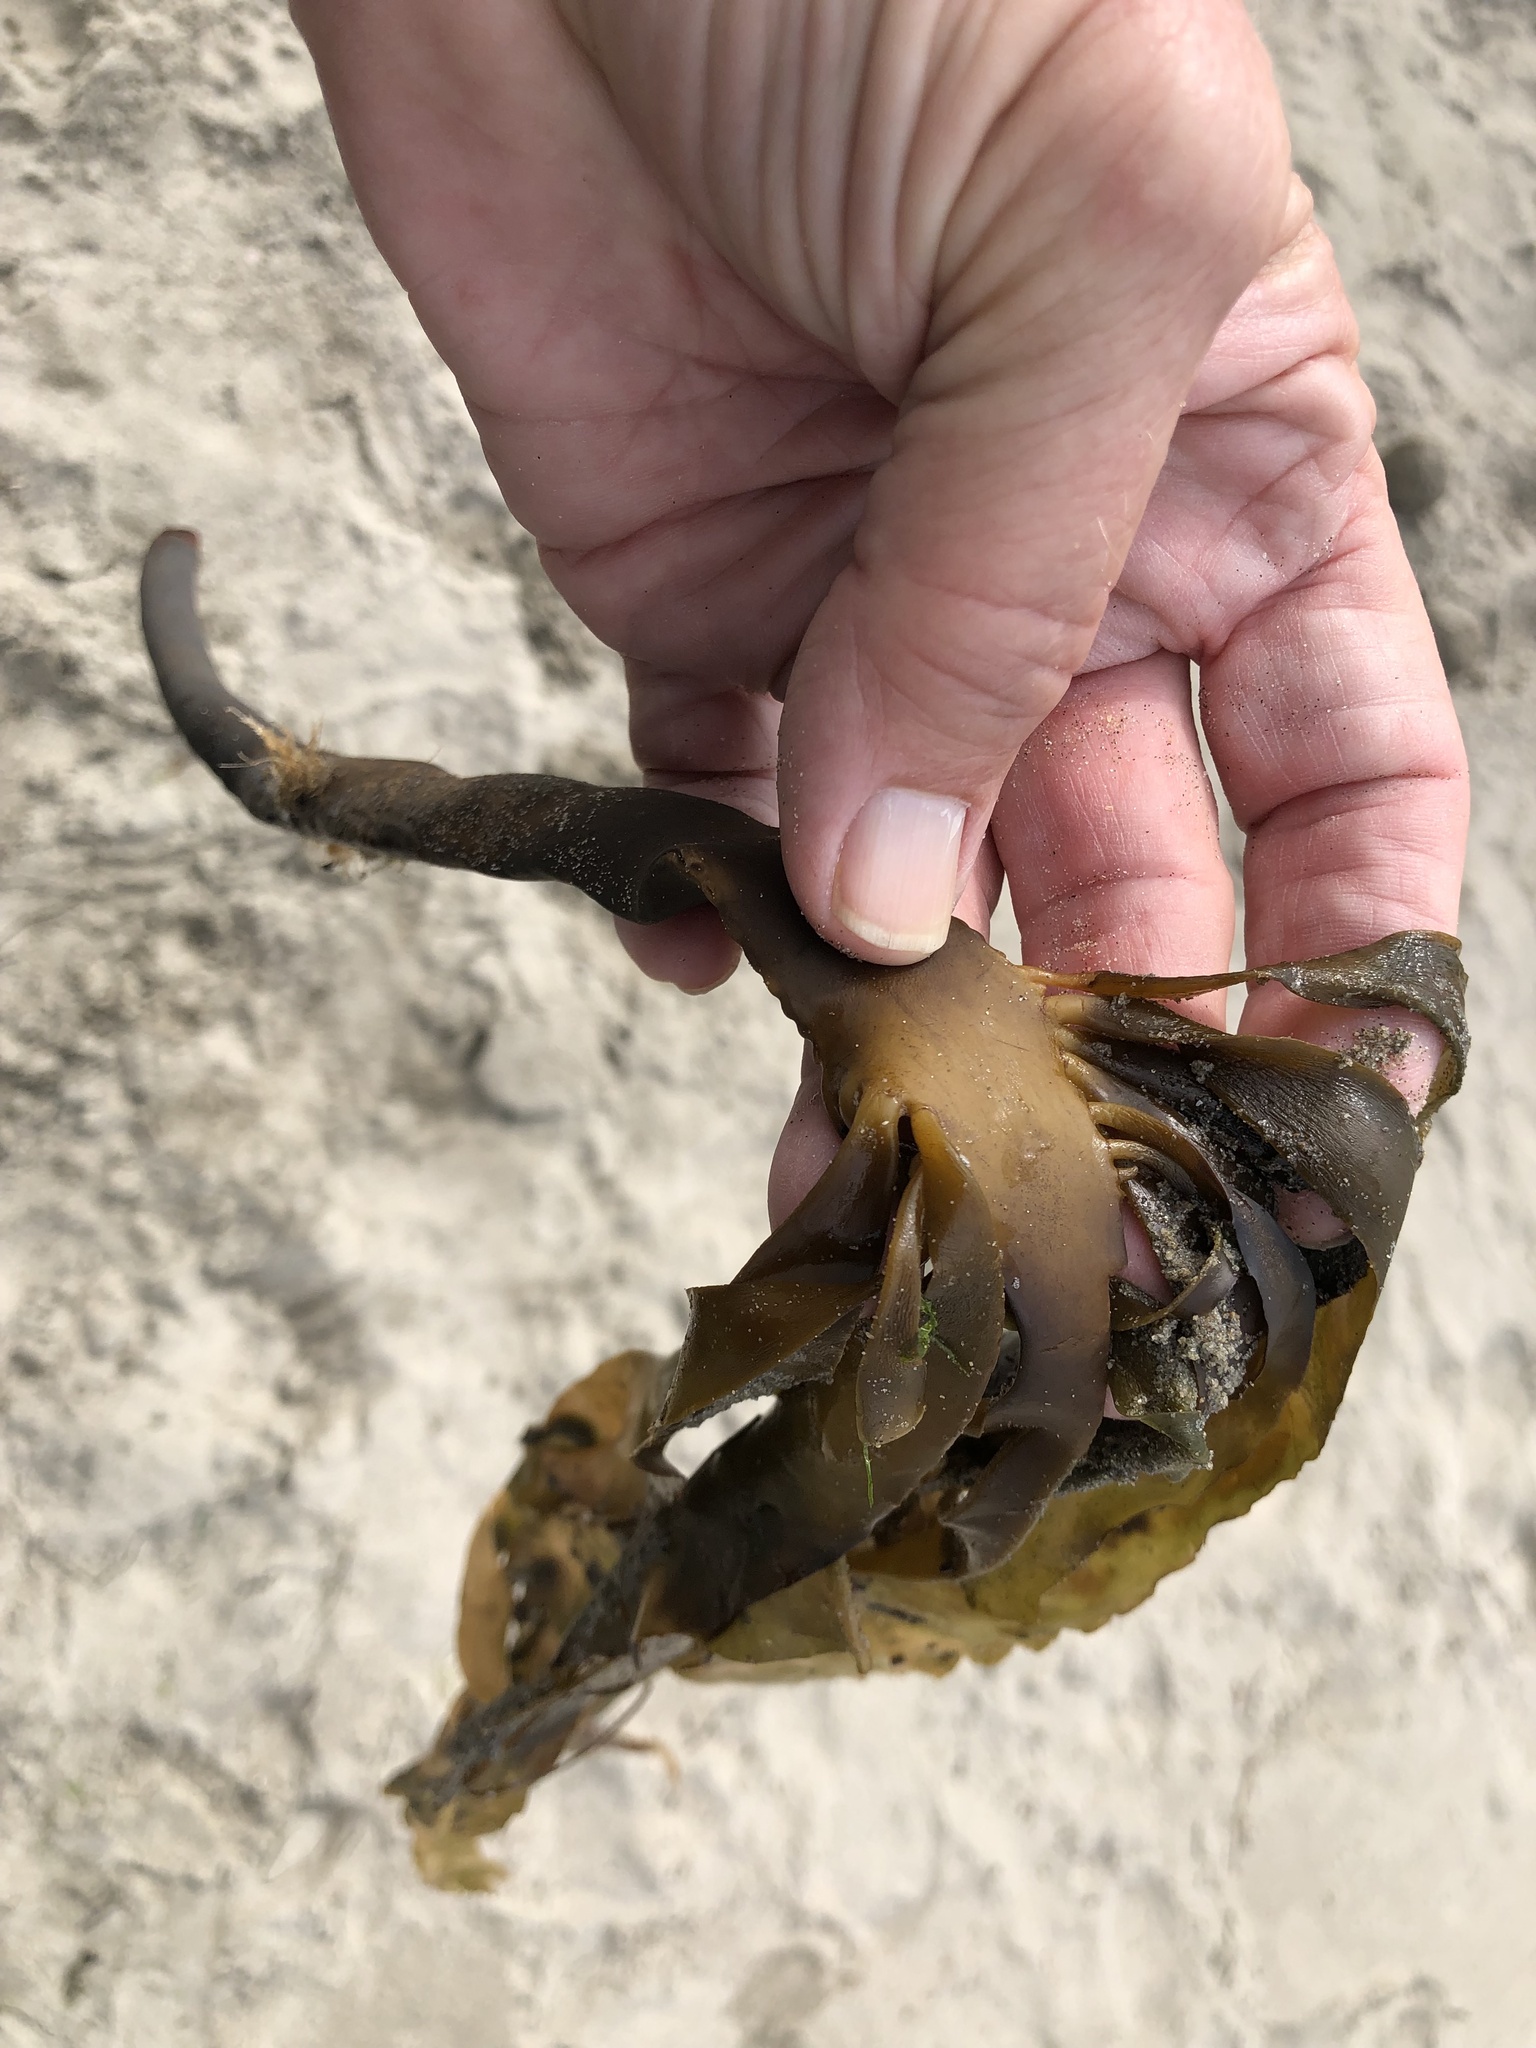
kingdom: Chromista
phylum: Ochrophyta
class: Phaeophyceae
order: Laminariales
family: Alariaceae
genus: Pterygophora
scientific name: Pterygophora californica
